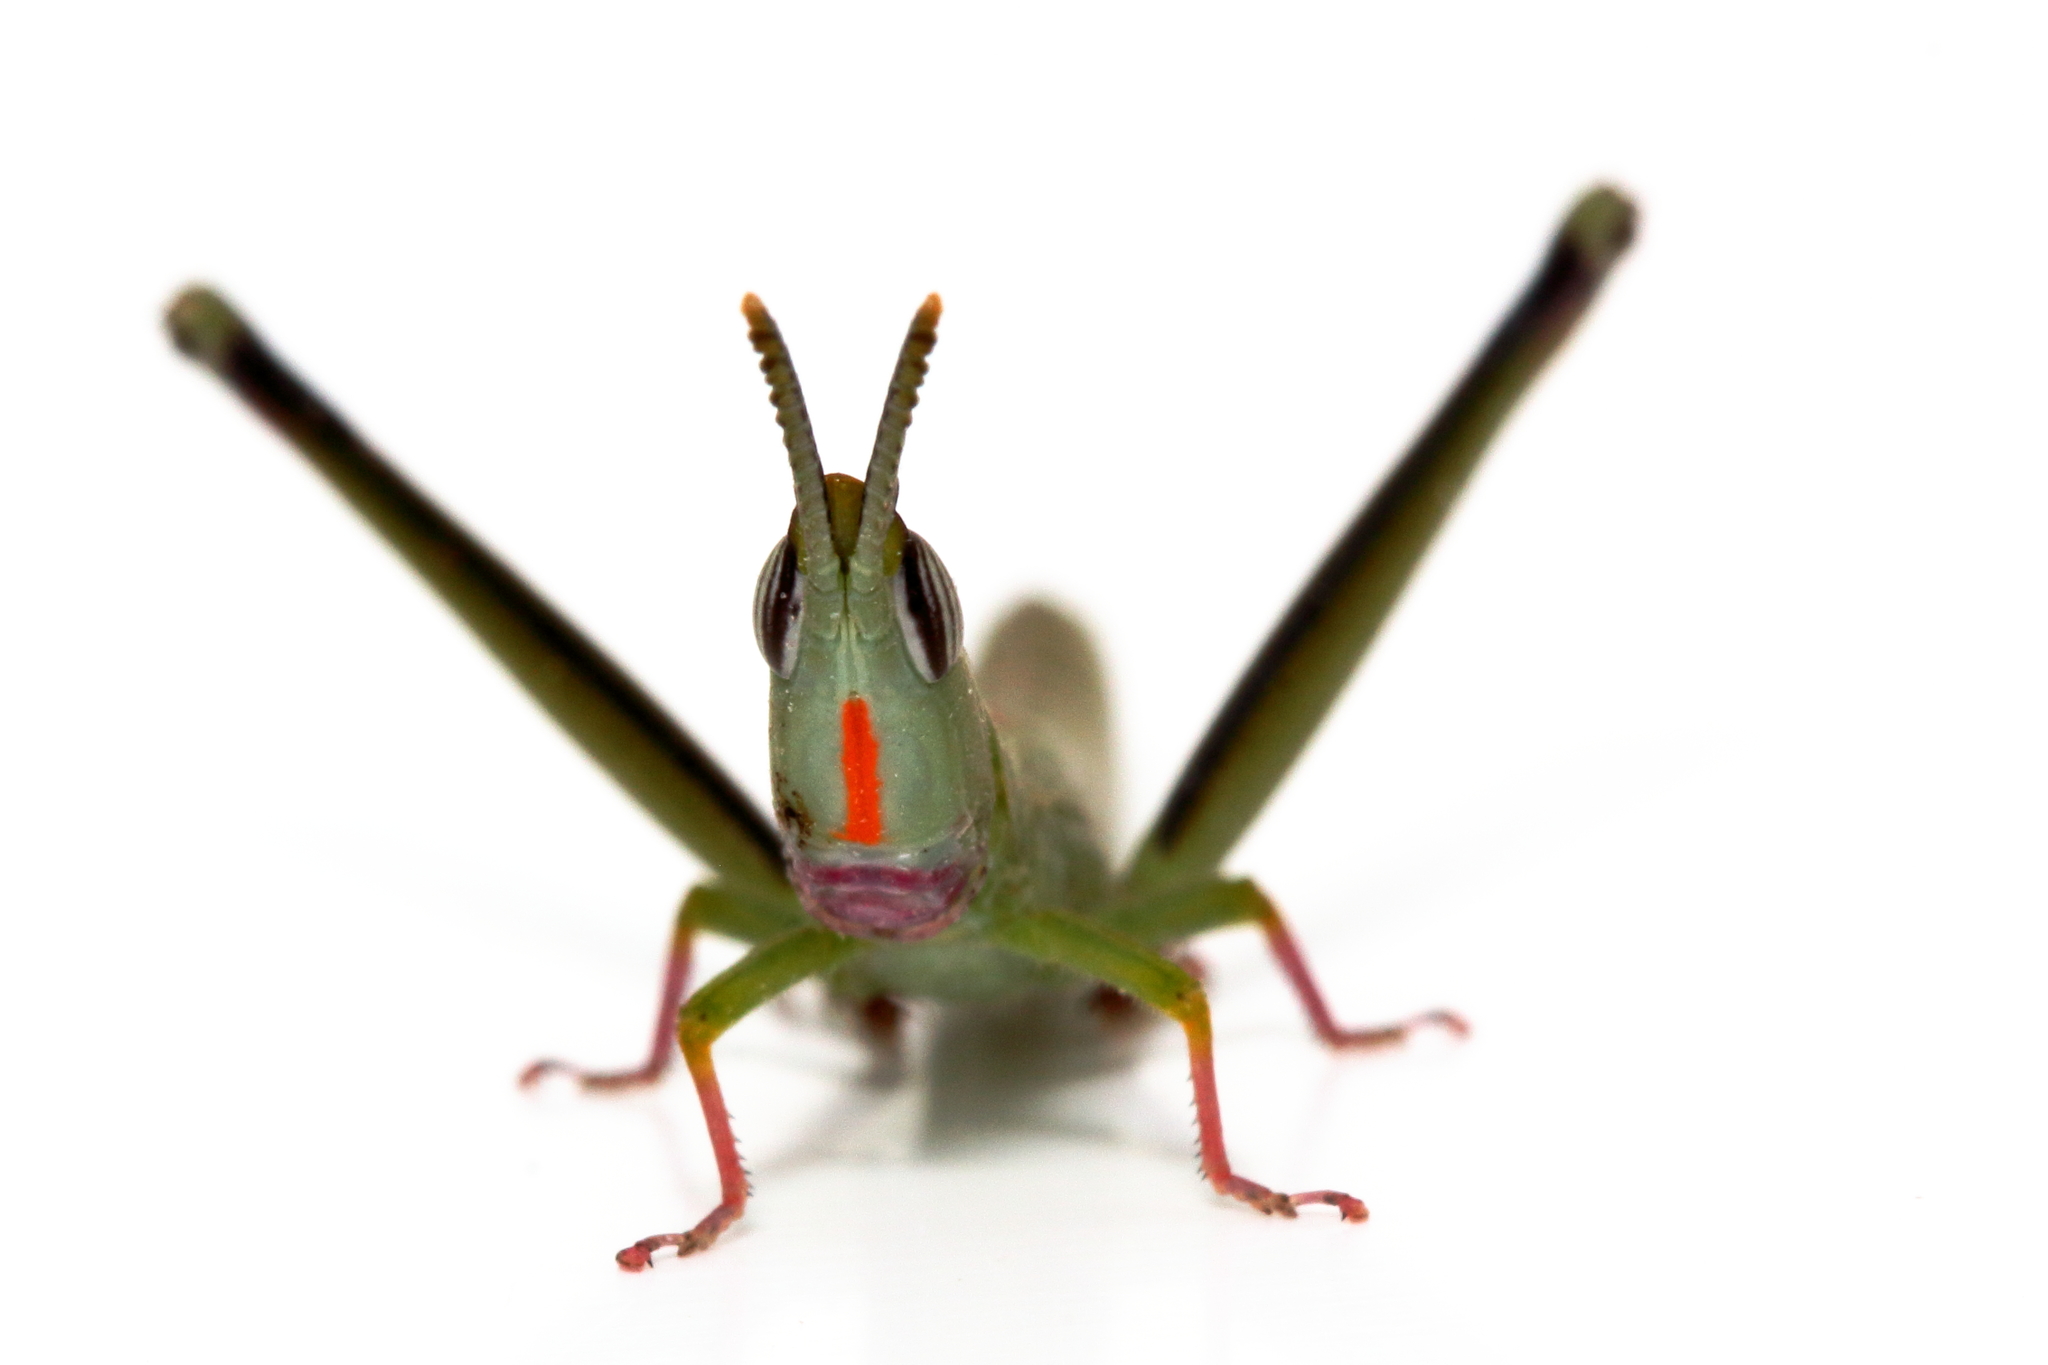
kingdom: Animalia
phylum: Arthropoda
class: Insecta
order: Orthoptera
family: Morabidae
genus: Warramaba
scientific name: Warramaba flavolineata
